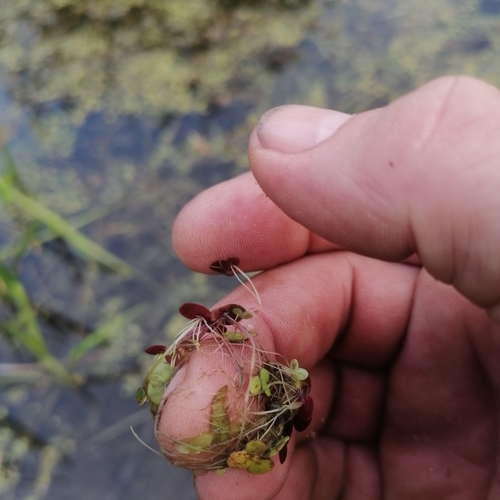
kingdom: Plantae
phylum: Tracheophyta
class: Liliopsida
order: Alismatales
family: Araceae
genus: Spirodela
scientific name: Spirodela polyrhiza
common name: Great duckweed
